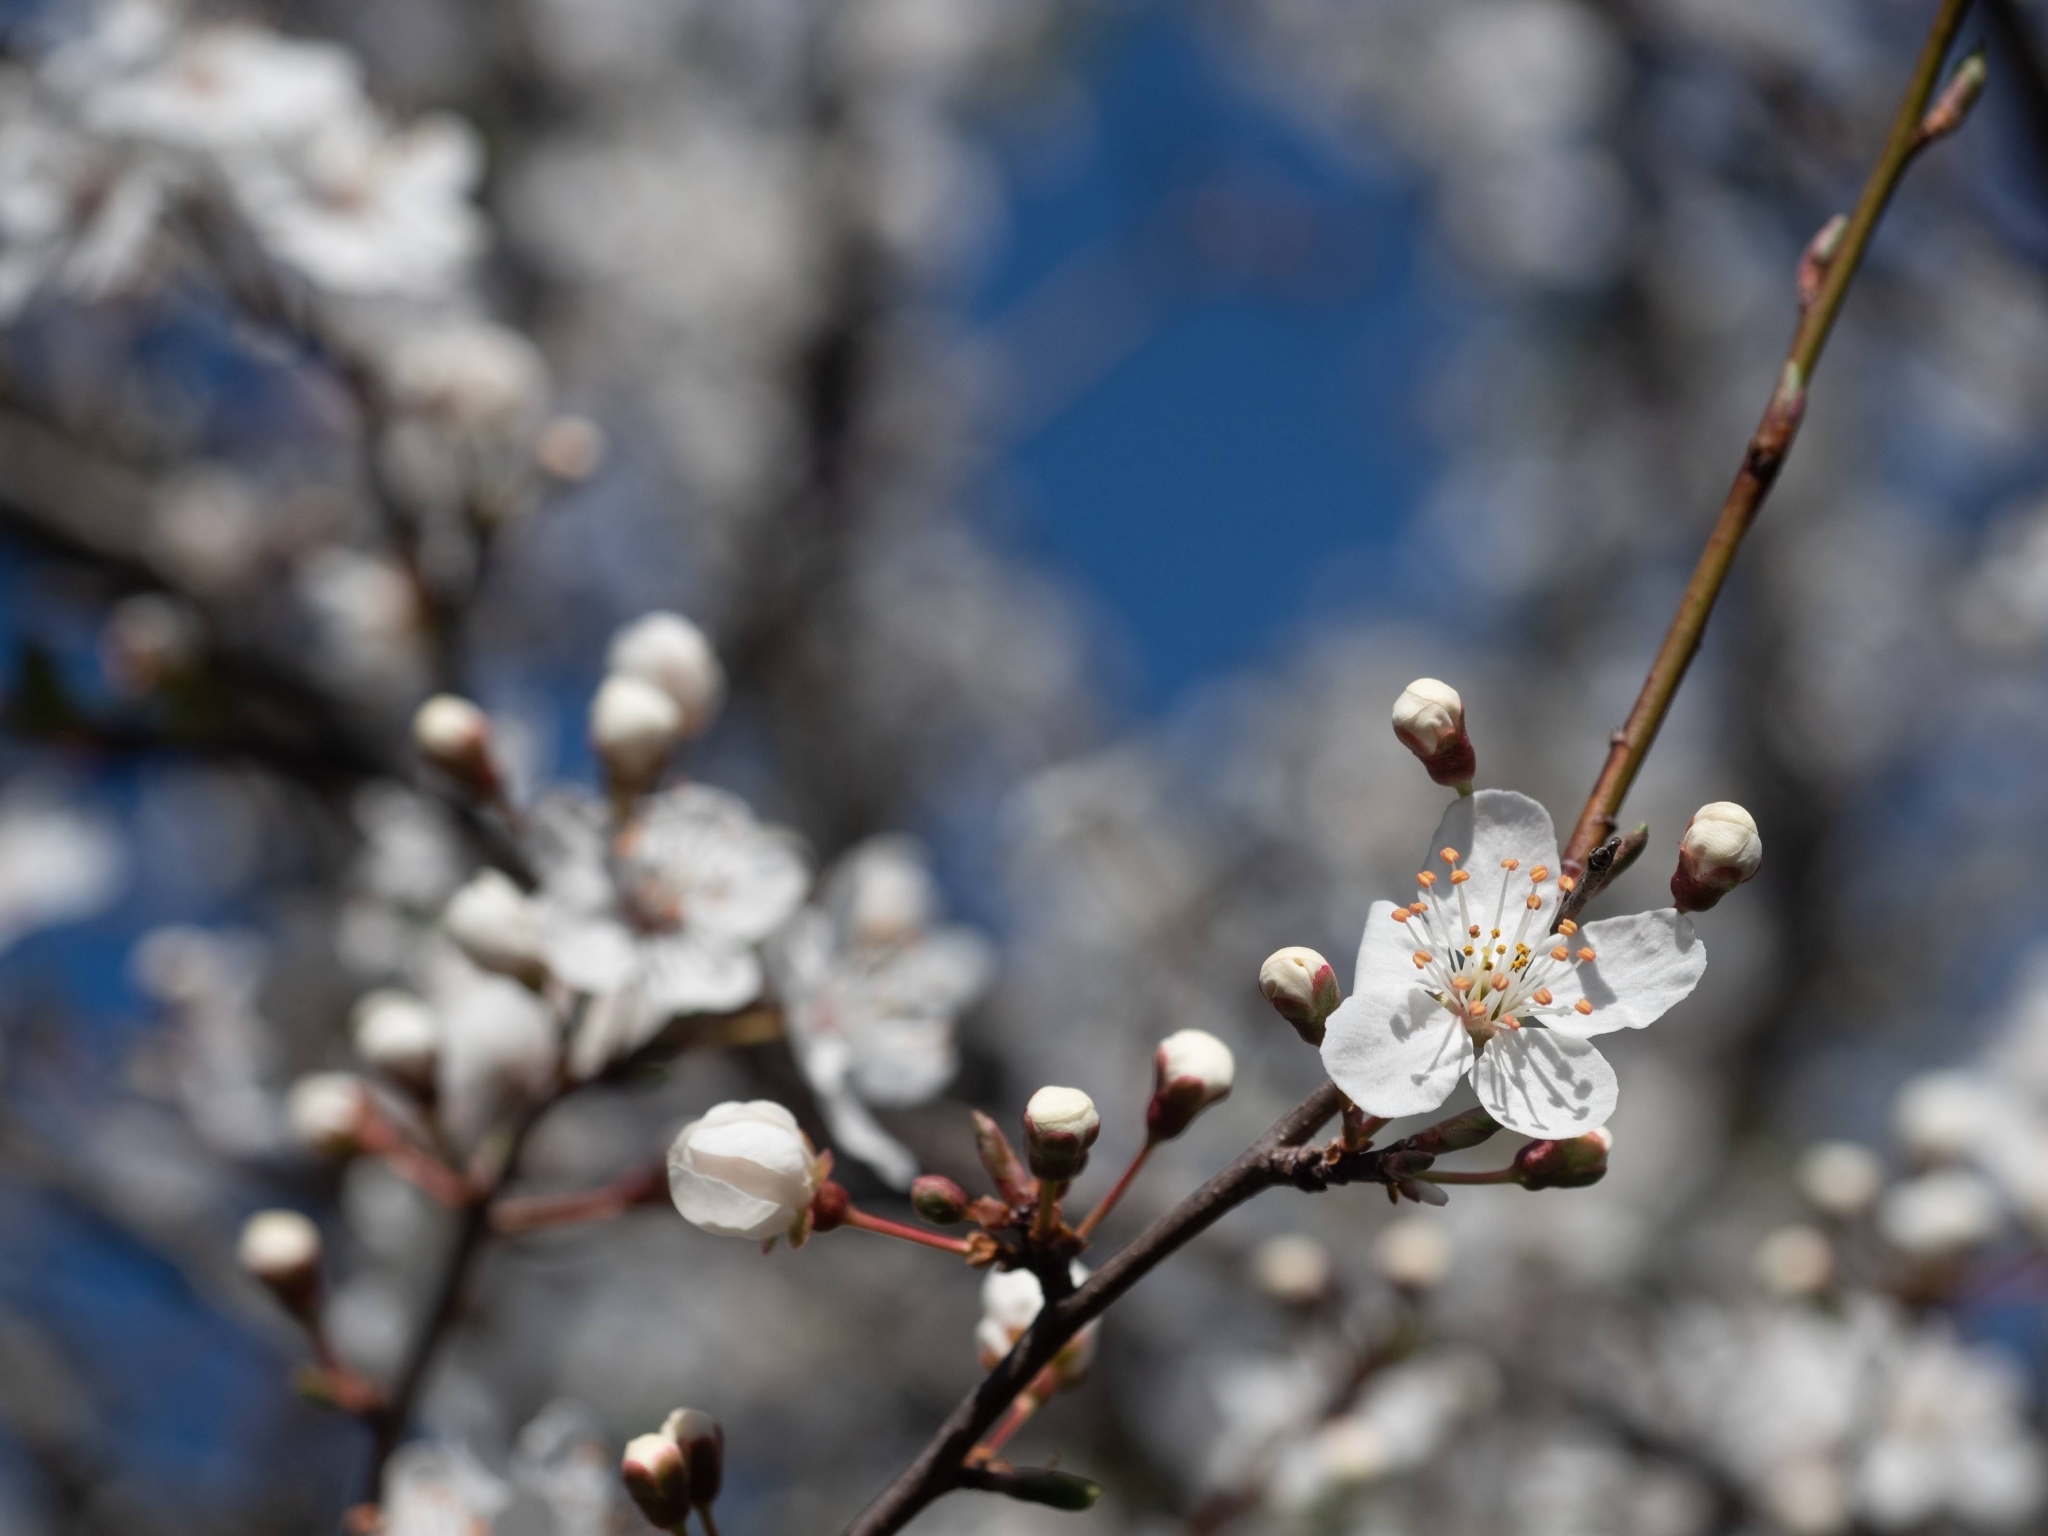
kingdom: Plantae
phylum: Tracheophyta
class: Magnoliopsida
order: Rosales
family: Rosaceae
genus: Prunus
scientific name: Prunus cerasifera
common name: Cherry plum
